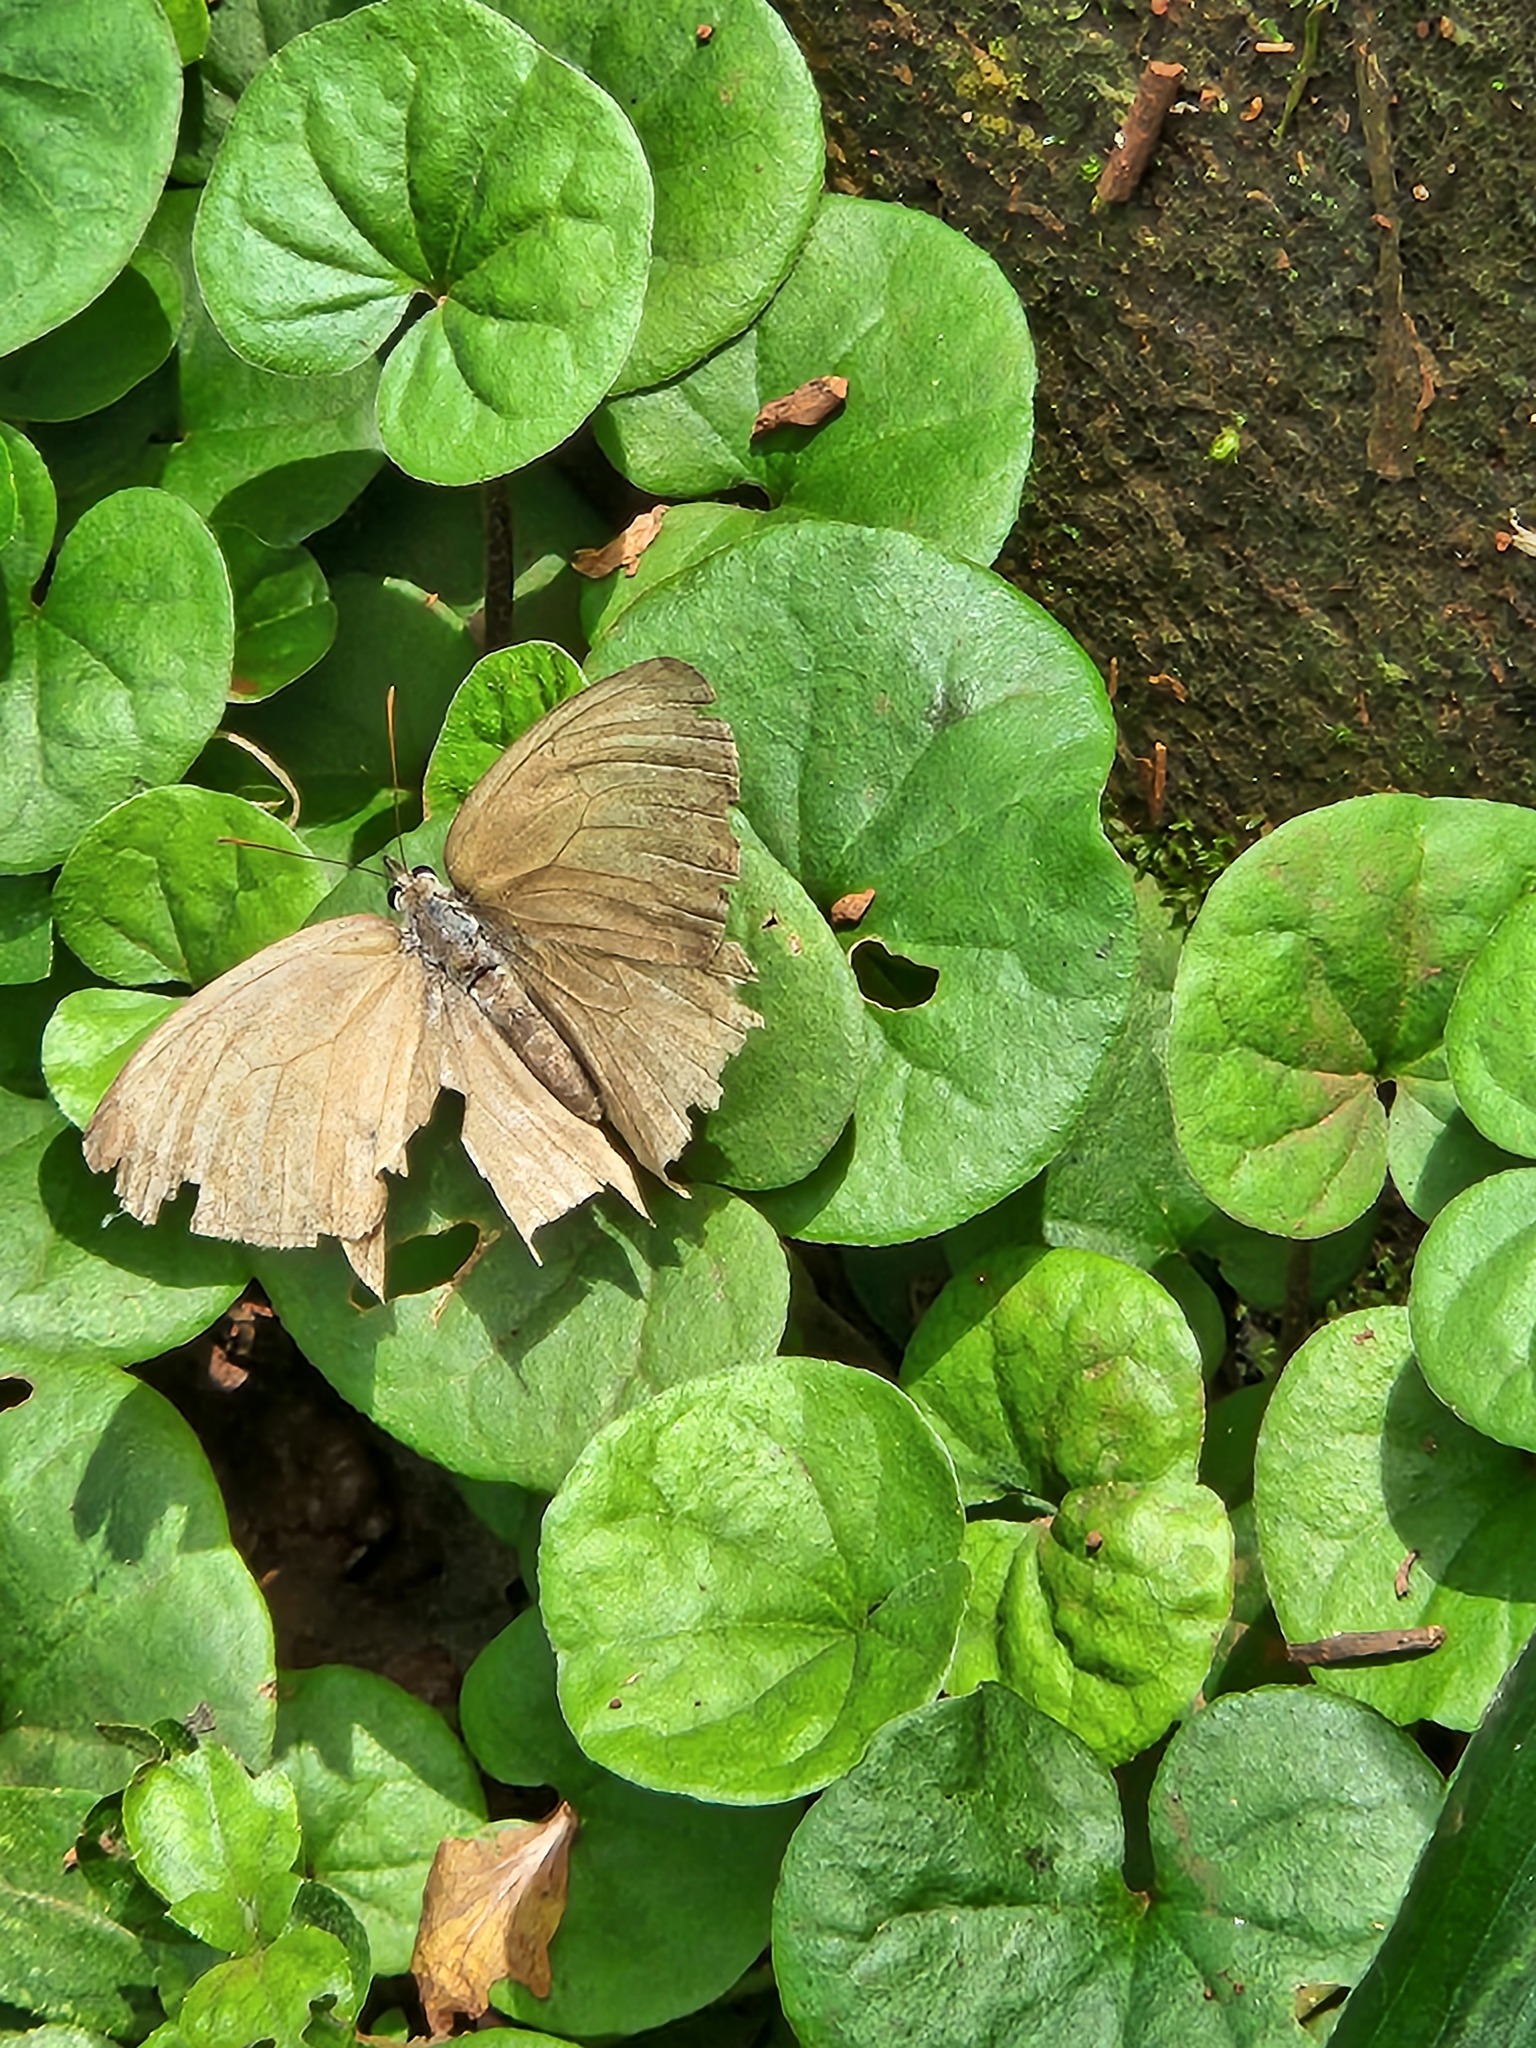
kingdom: Animalia
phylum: Arthropoda
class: Insecta
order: Lepidoptera
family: Nymphalidae
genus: Euptychiina
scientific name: Euptychiina
